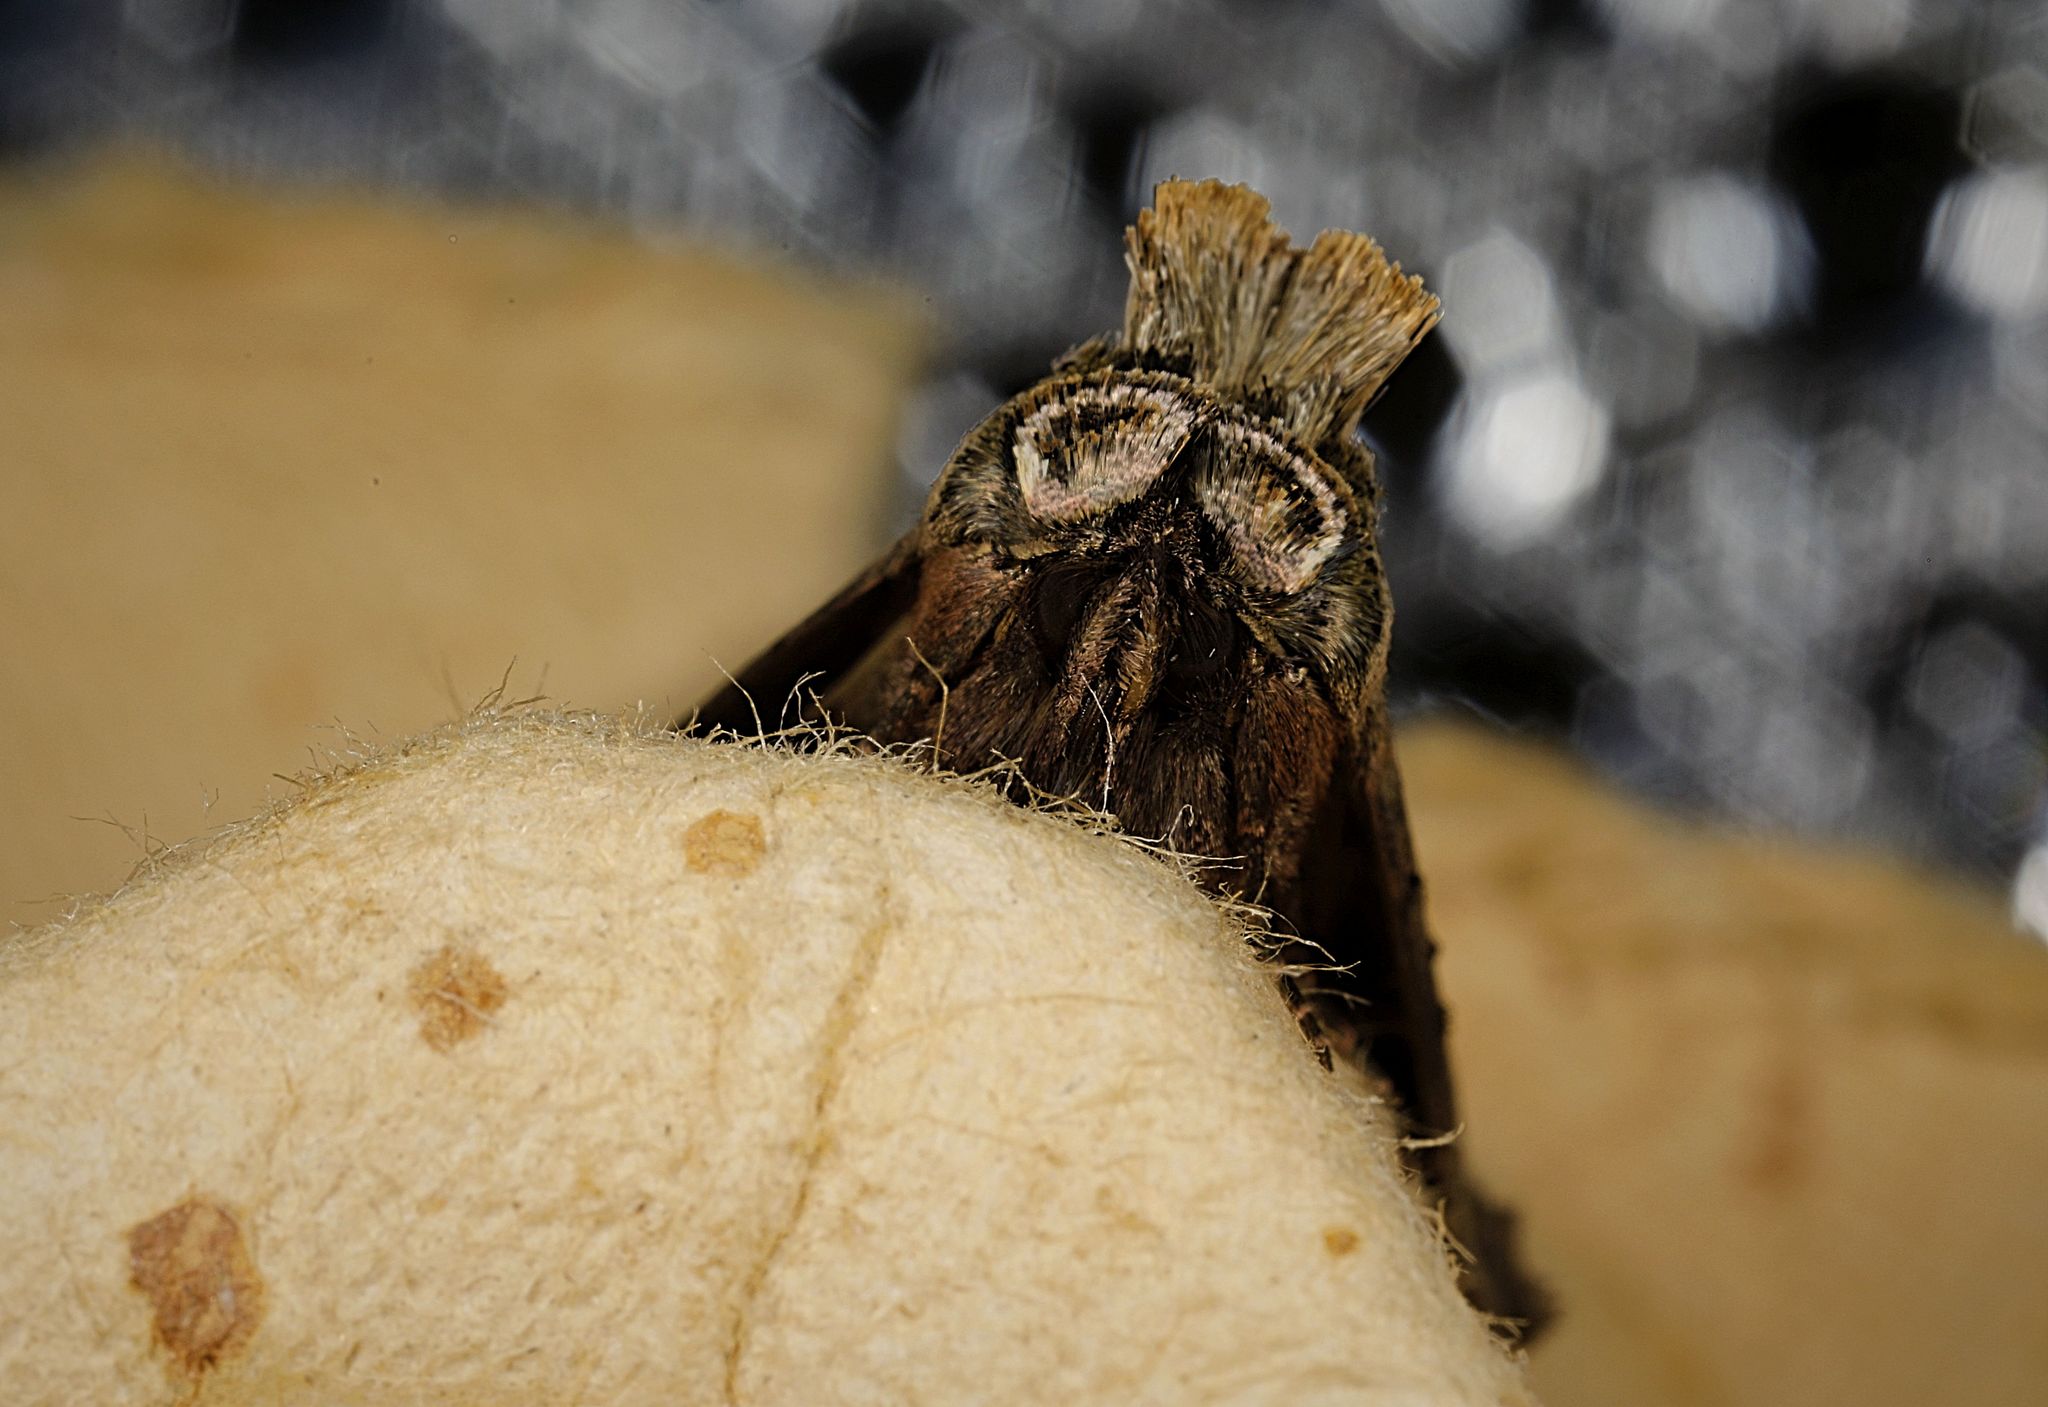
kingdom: Animalia
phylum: Arthropoda
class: Insecta
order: Lepidoptera
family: Noctuidae
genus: Abrostola
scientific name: Abrostola tripartita
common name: Spectacle
